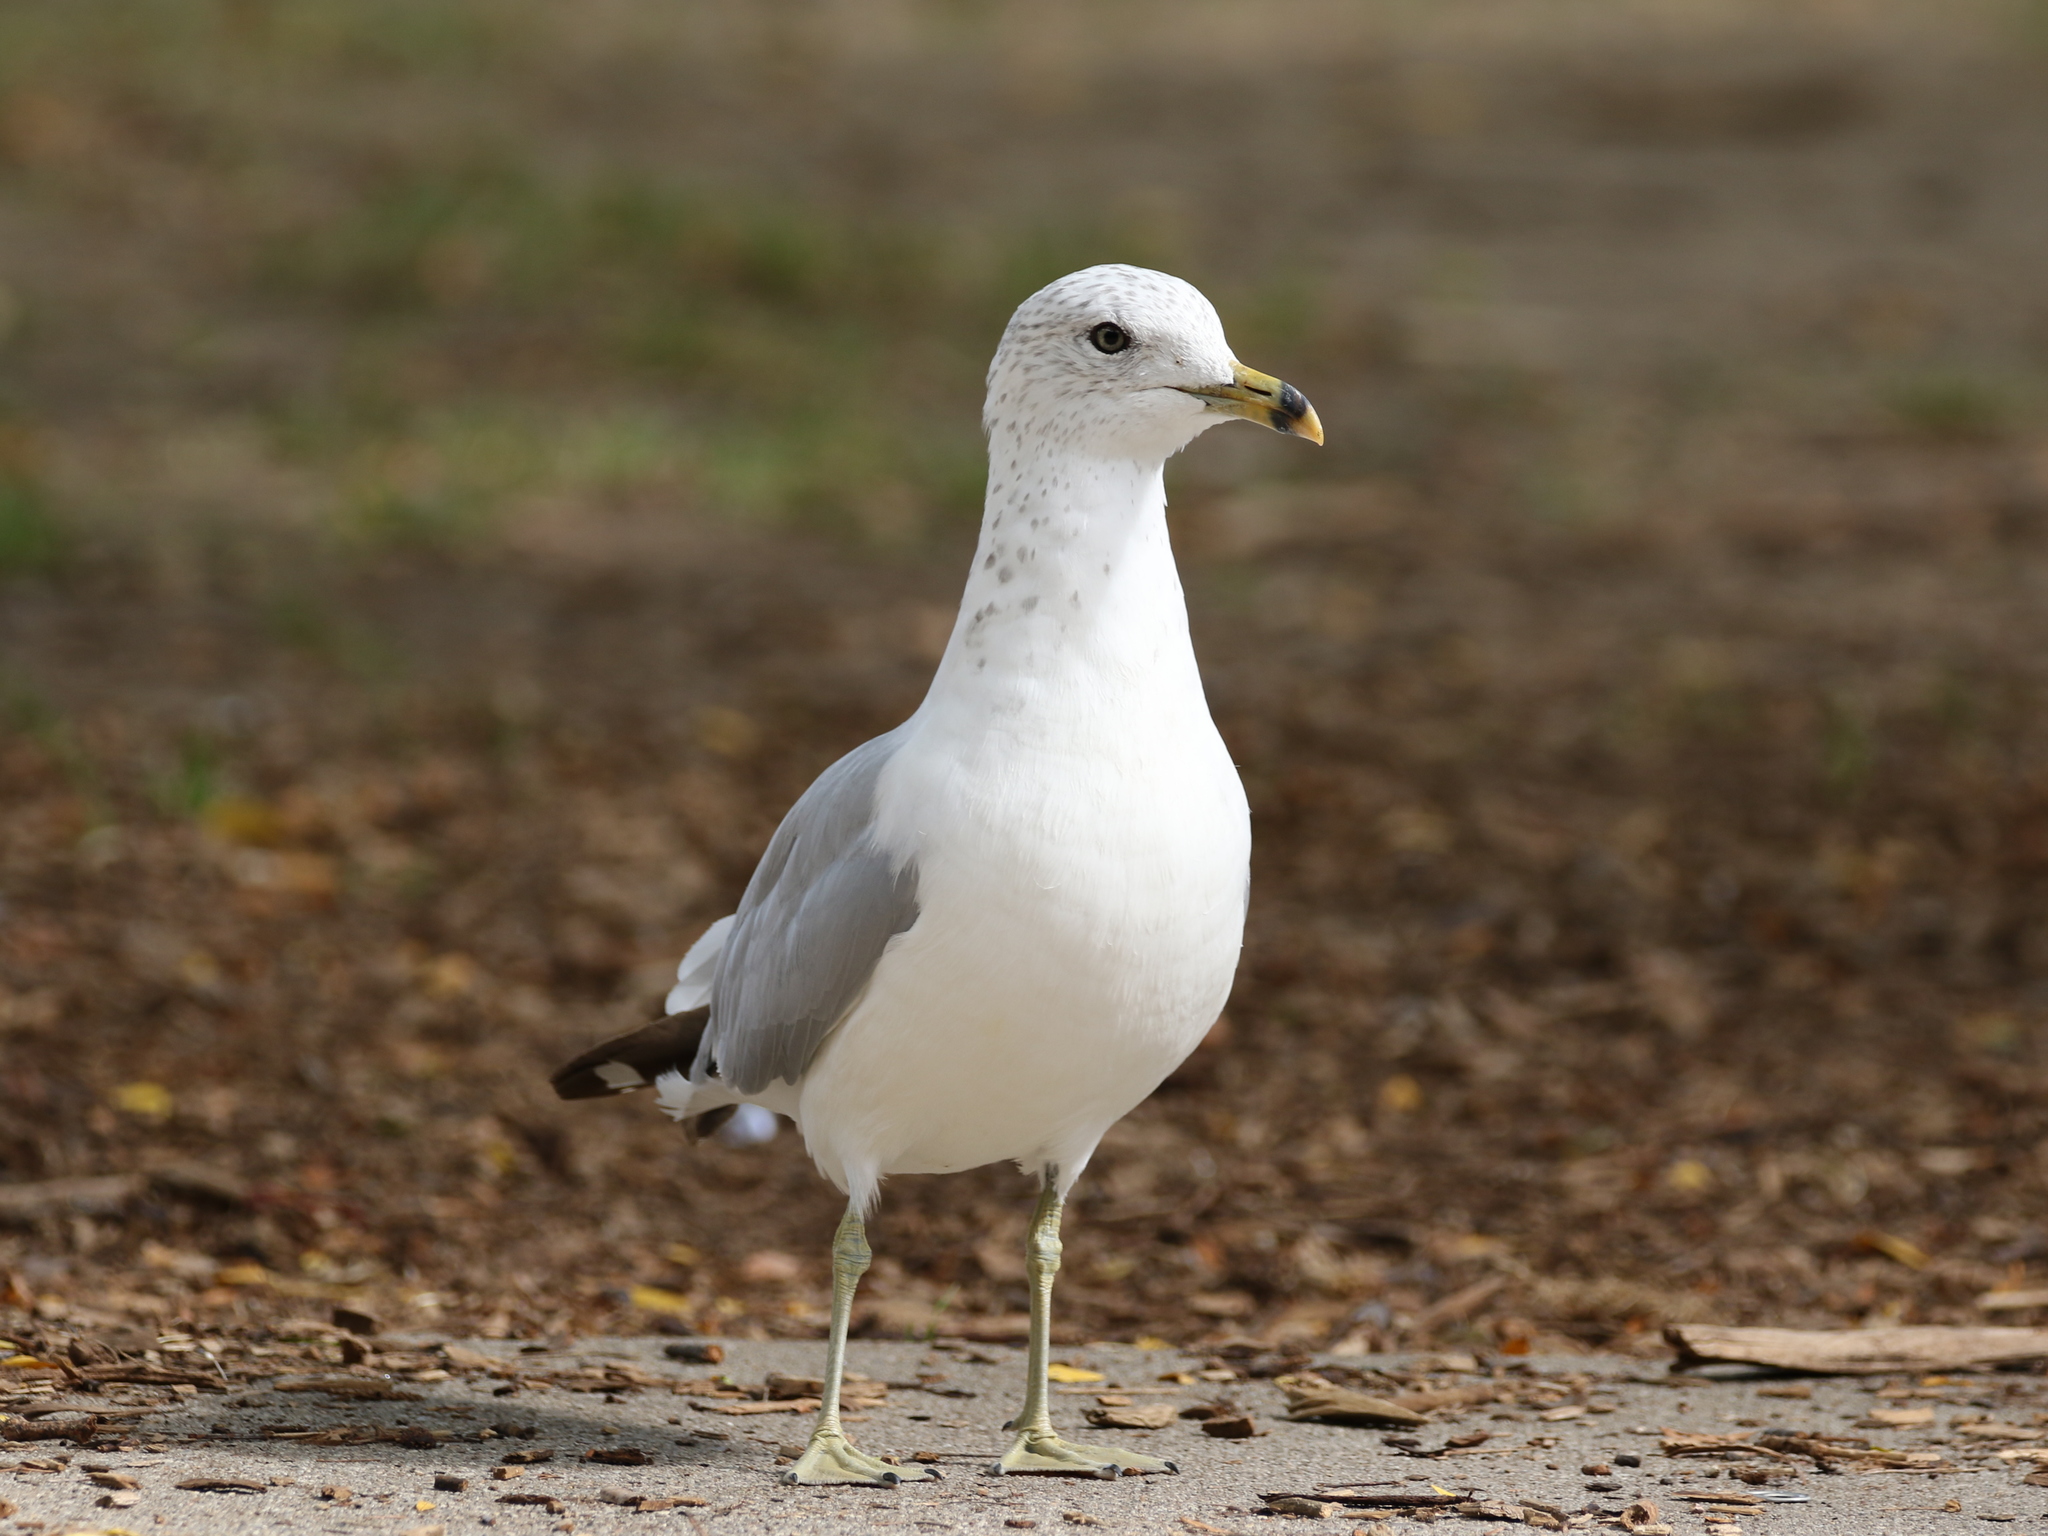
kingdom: Animalia
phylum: Chordata
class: Aves
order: Charadriiformes
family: Laridae
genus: Larus
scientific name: Larus delawarensis
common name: Ring-billed gull
